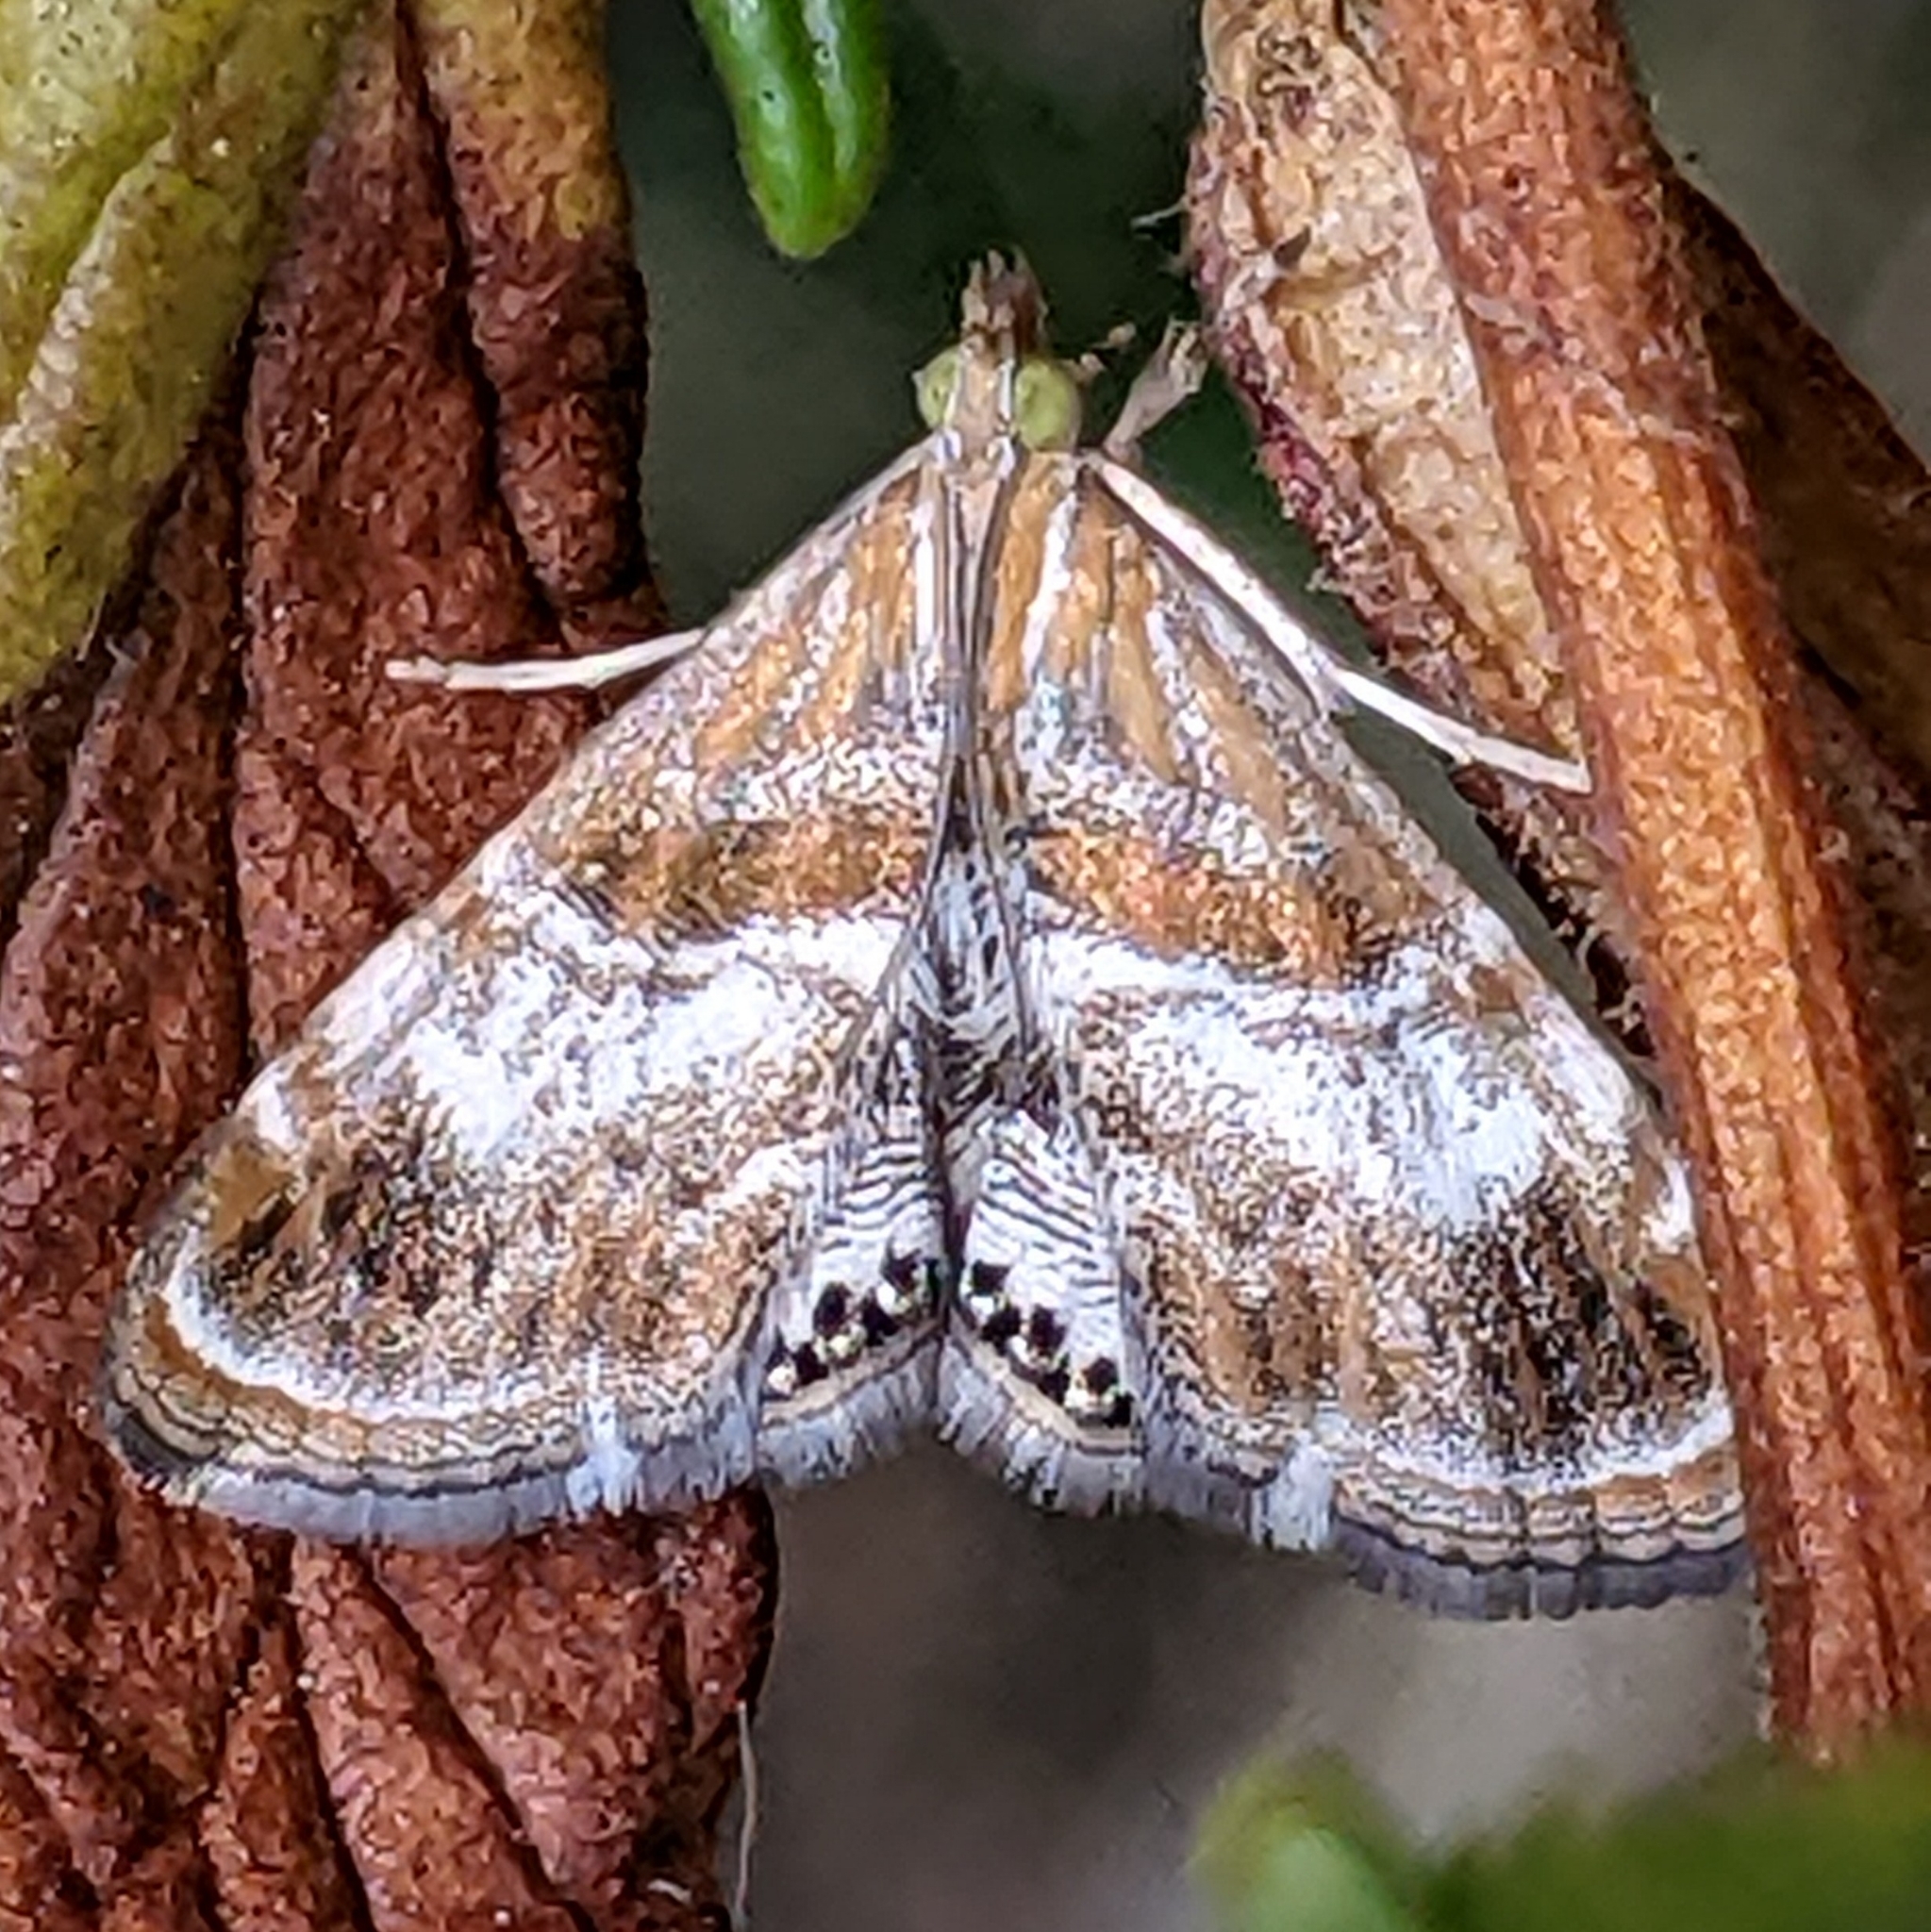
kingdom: Animalia
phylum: Arthropoda
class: Insecta
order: Lepidoptera
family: Crambidae
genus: Dicymolomia
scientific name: Dicymolomia metalliferalis
